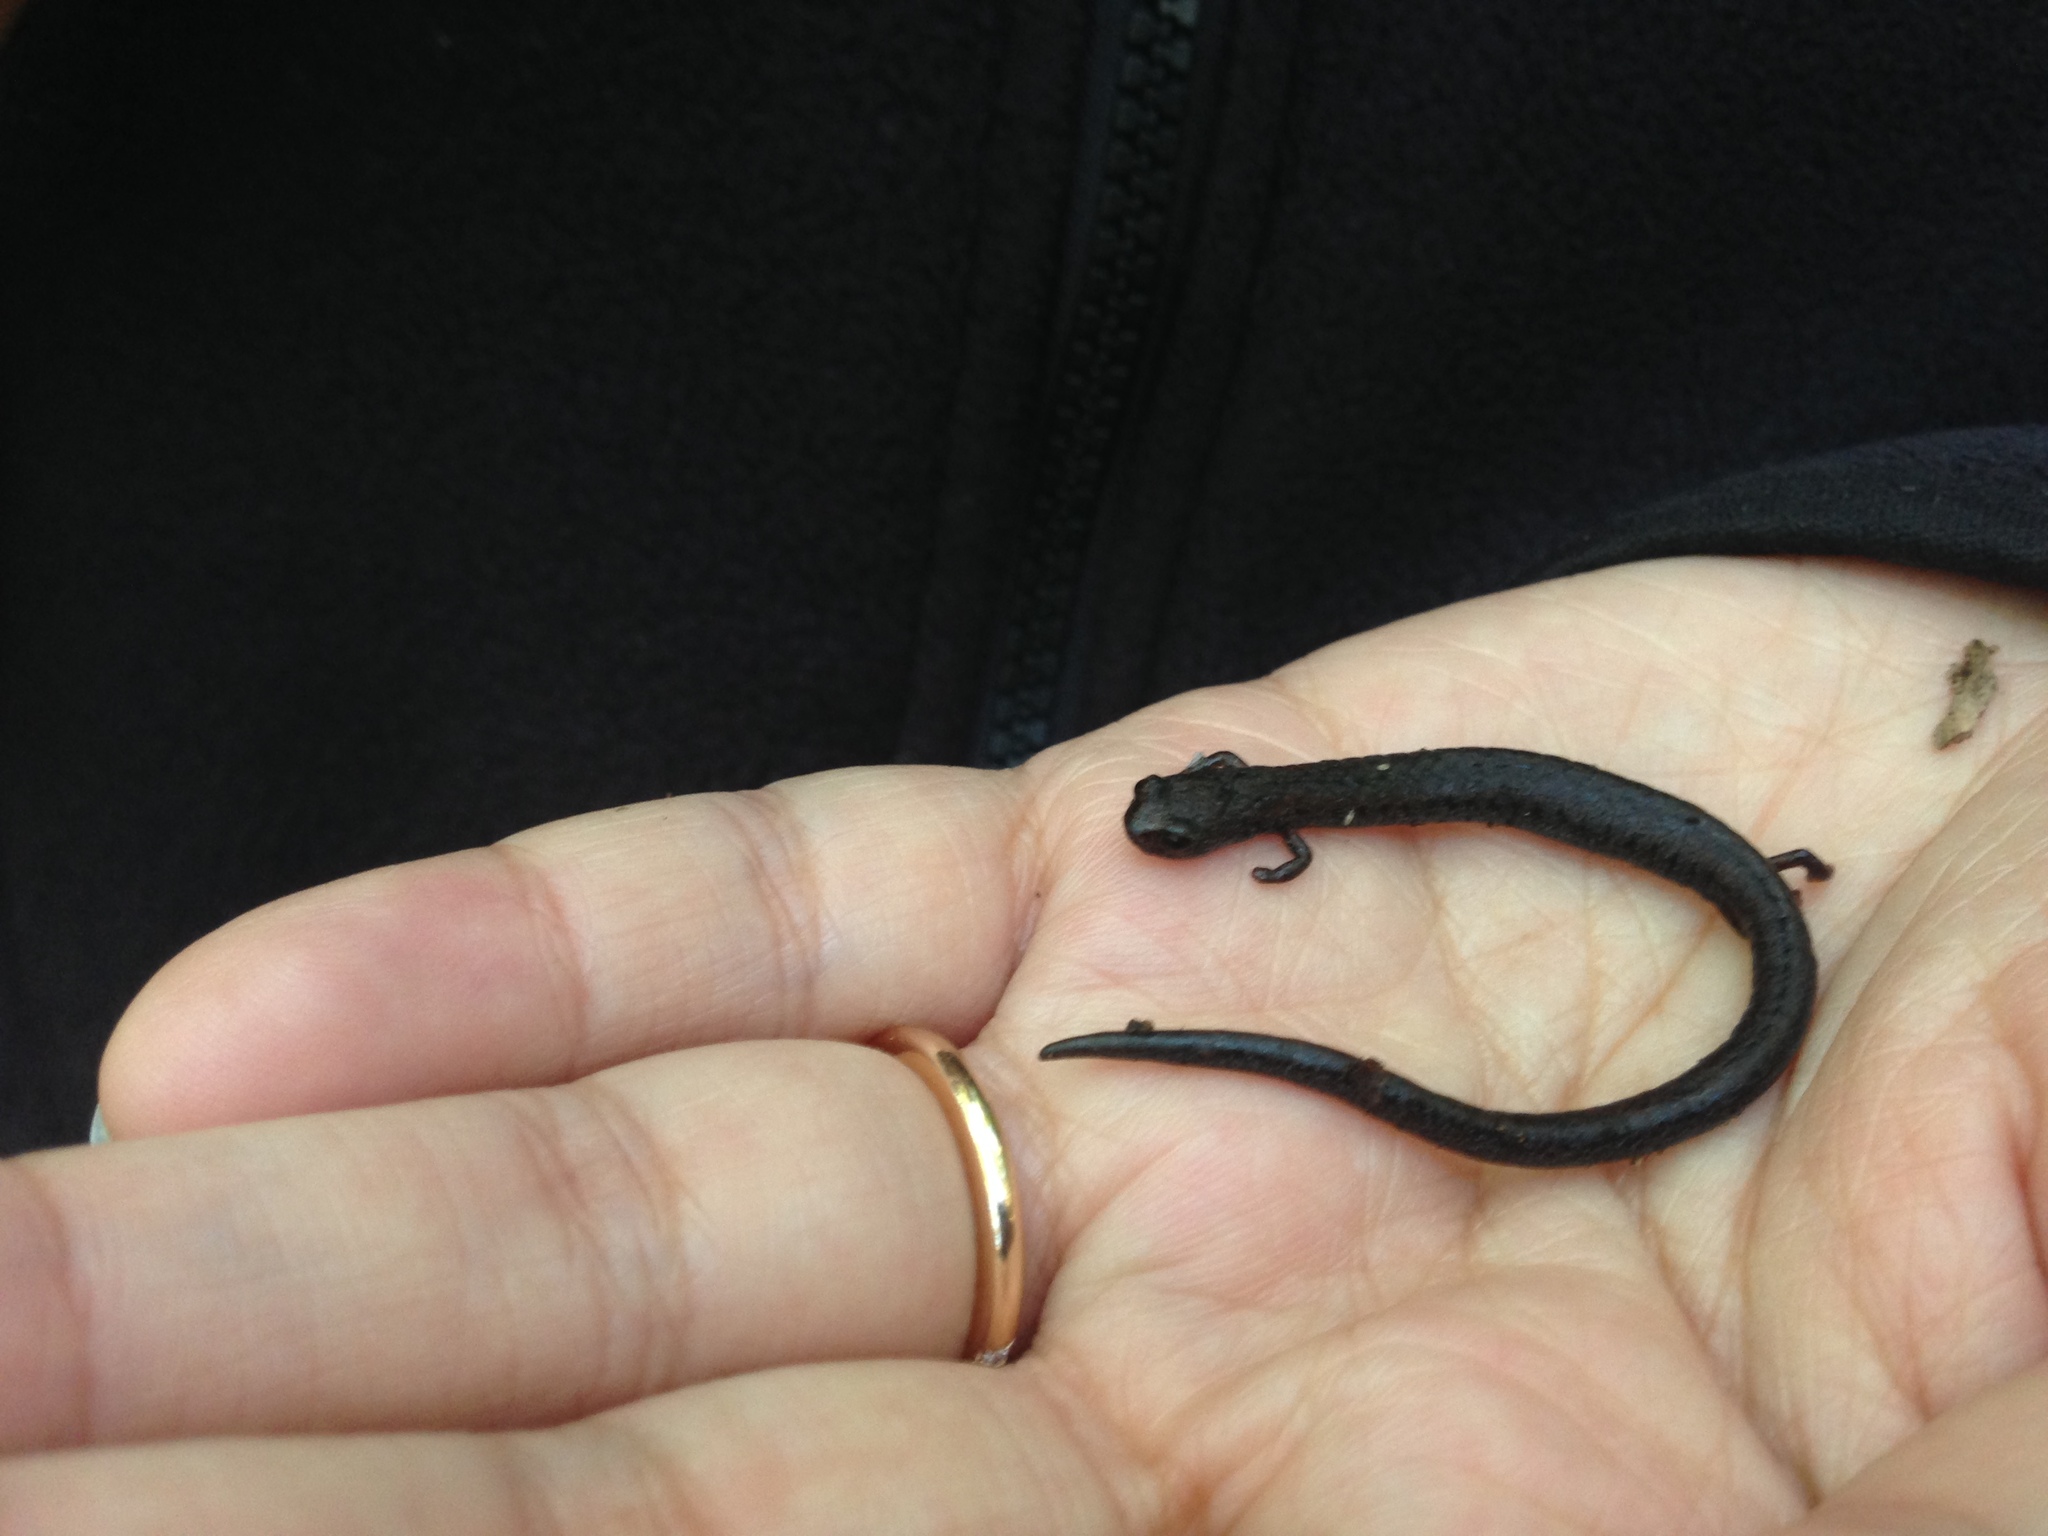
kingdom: Animalia
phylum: Chordata
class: Amphibia
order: Caudata
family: Plethodontidae
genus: Batrachoseps
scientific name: Batrachoseps attenuatus
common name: California slender salamander
